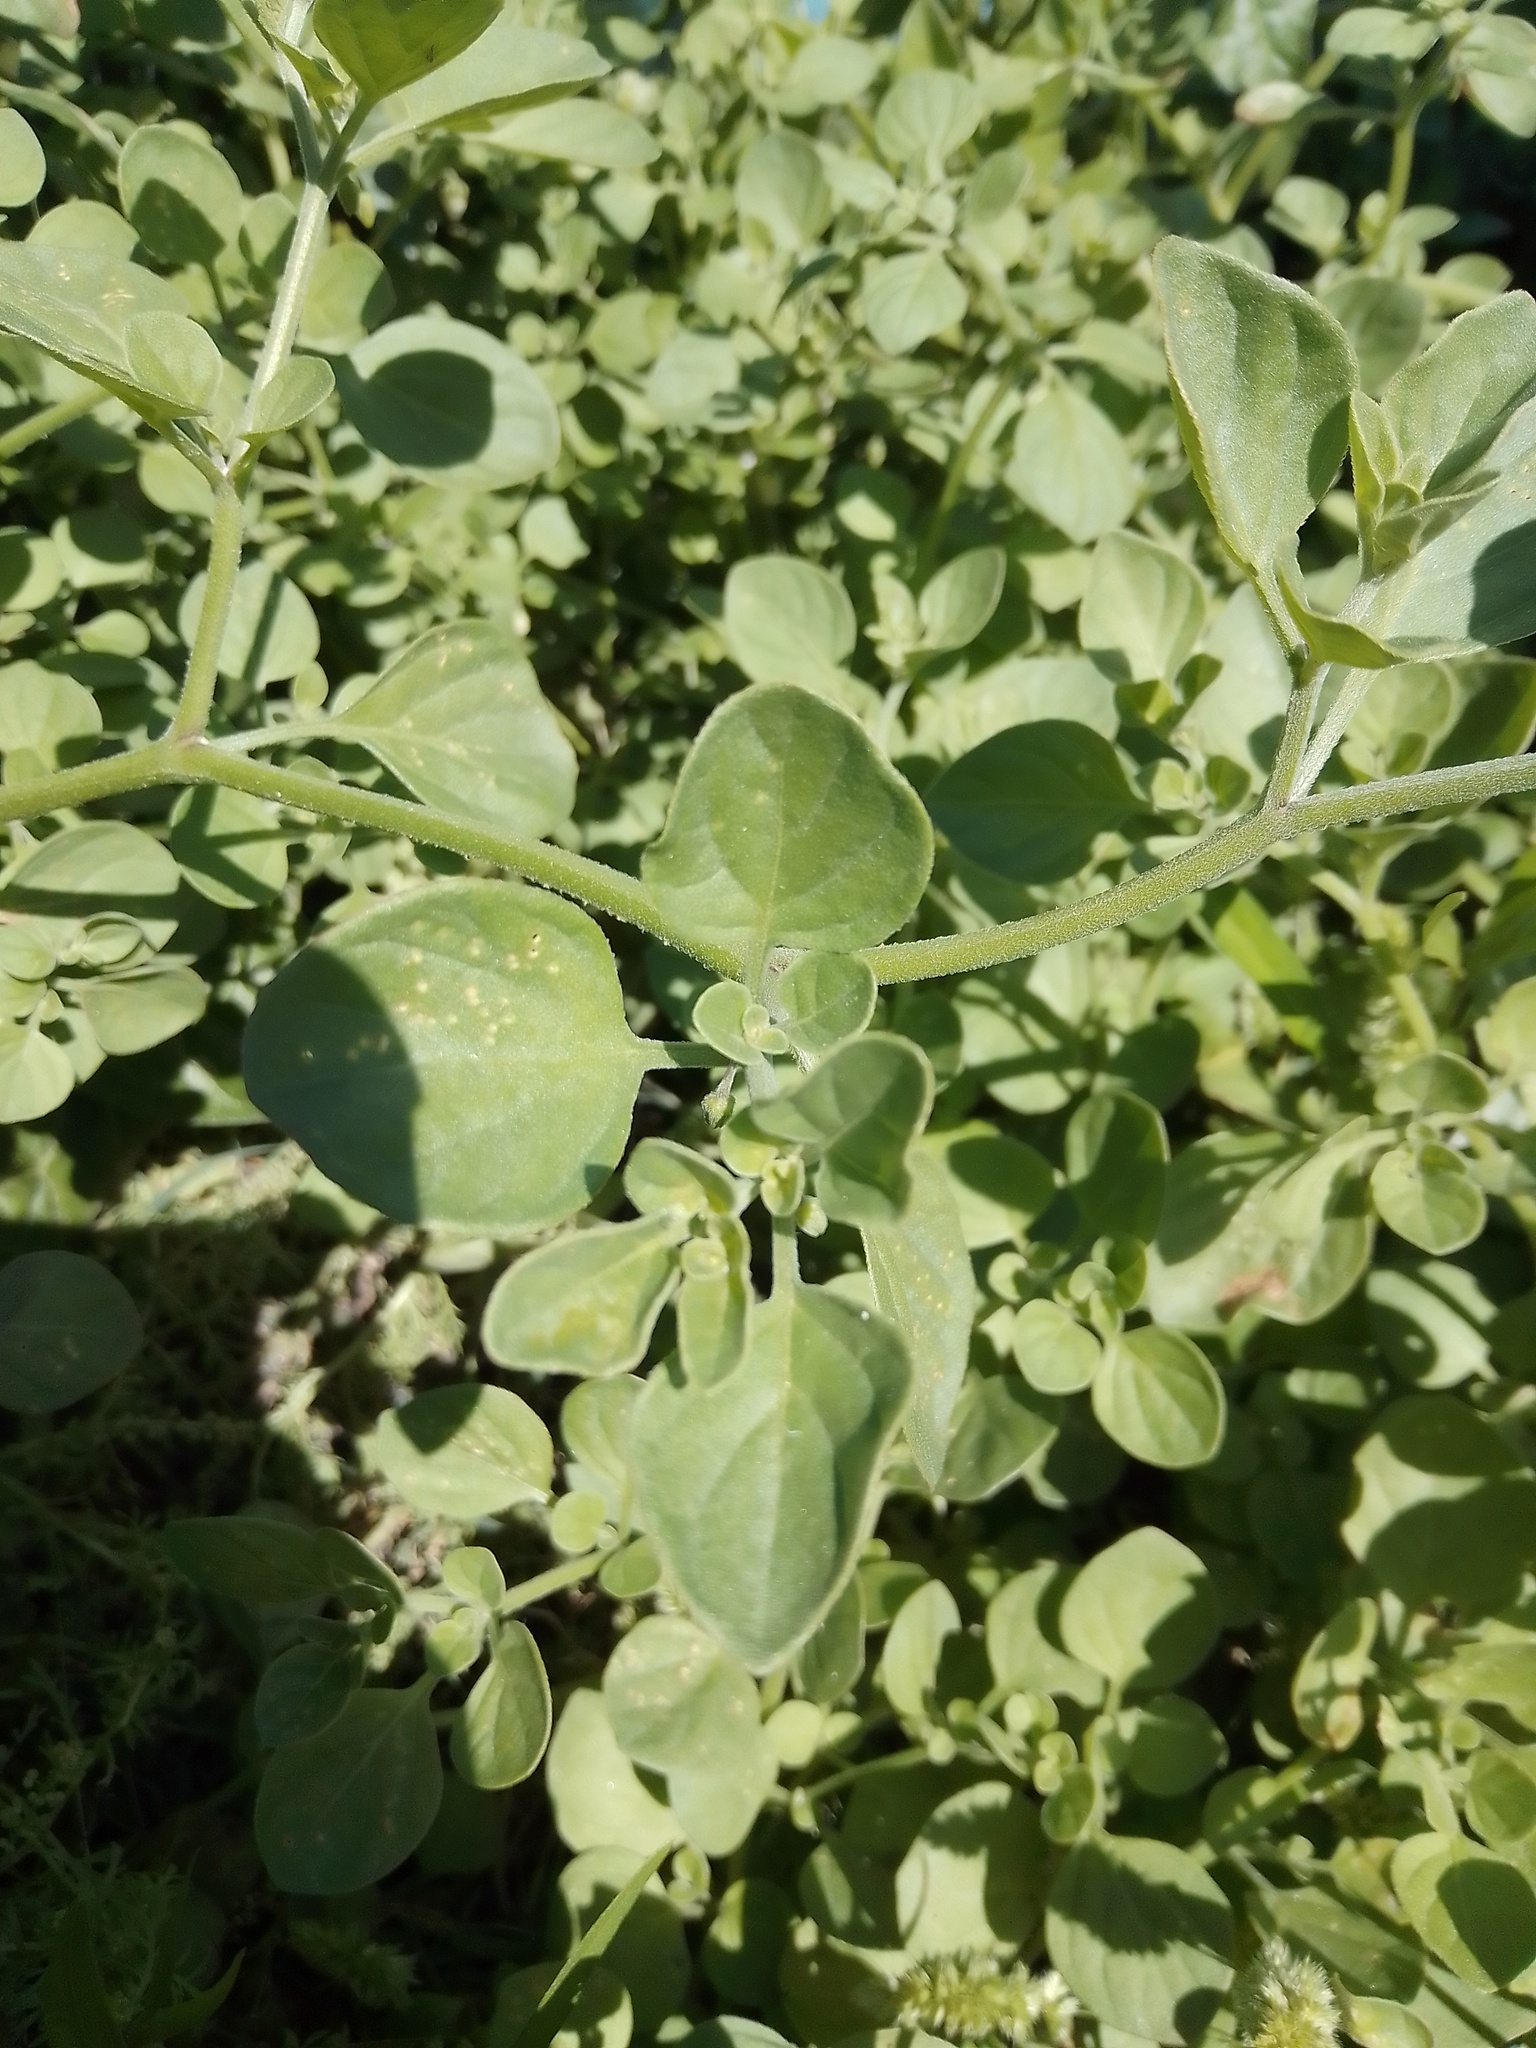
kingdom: Plantae
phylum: Tracheophyta
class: Magnoliopsida
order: Solanales
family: Solanaceae
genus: Salpichroa
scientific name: Salpichroa origanifolia
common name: Lily-of-the-valley-vine
